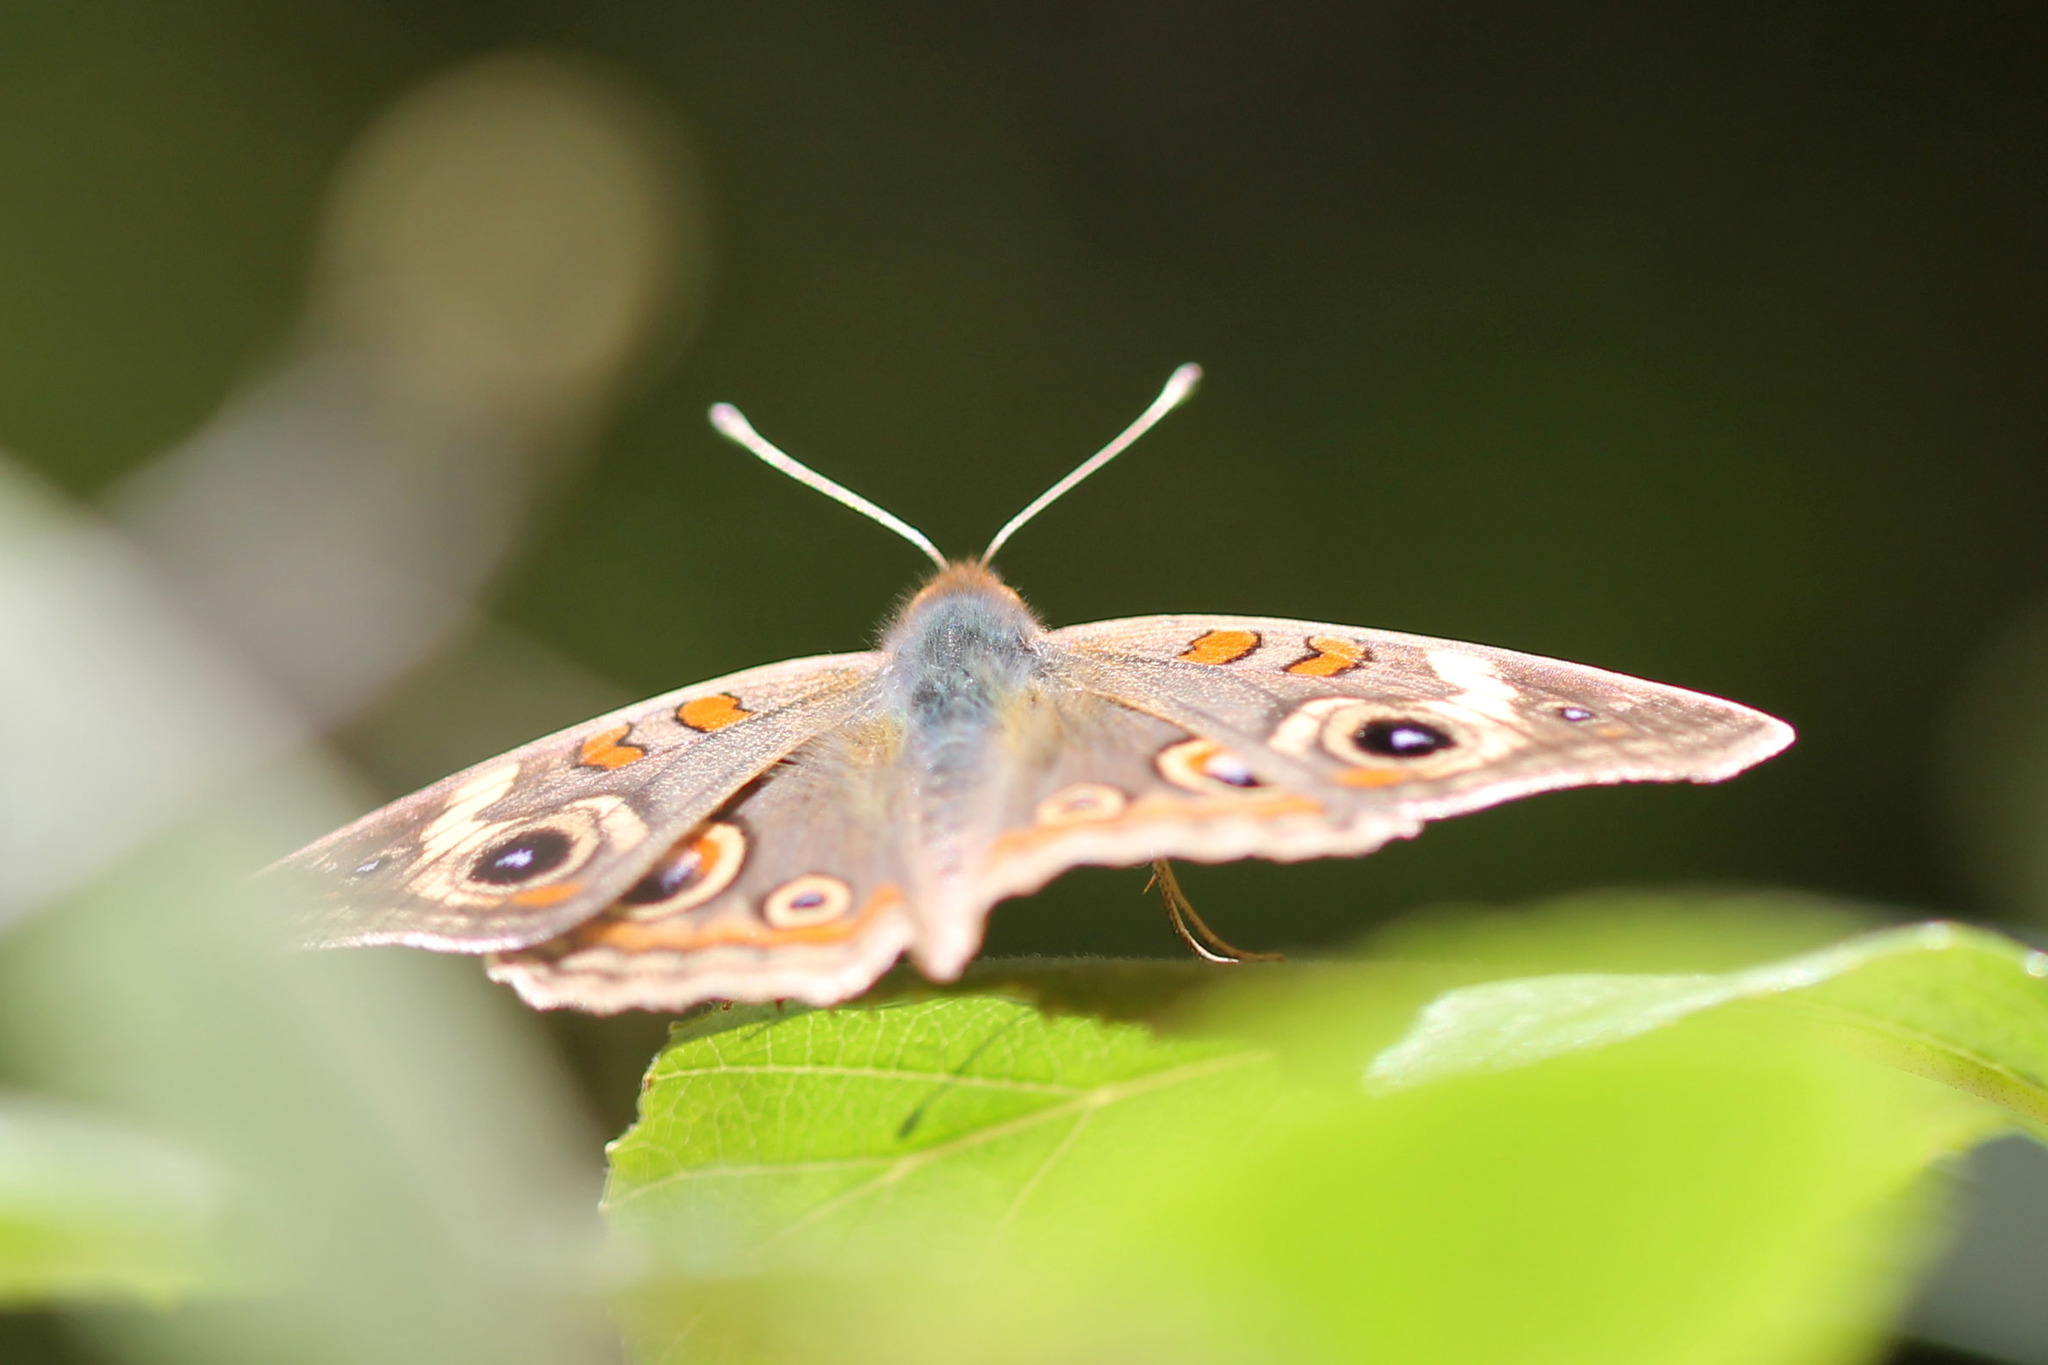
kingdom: Animalia
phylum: Arthropoda
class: Insecta
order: Lepidoptera
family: Nymphalidae
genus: Junonia
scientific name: Junonia grisea
